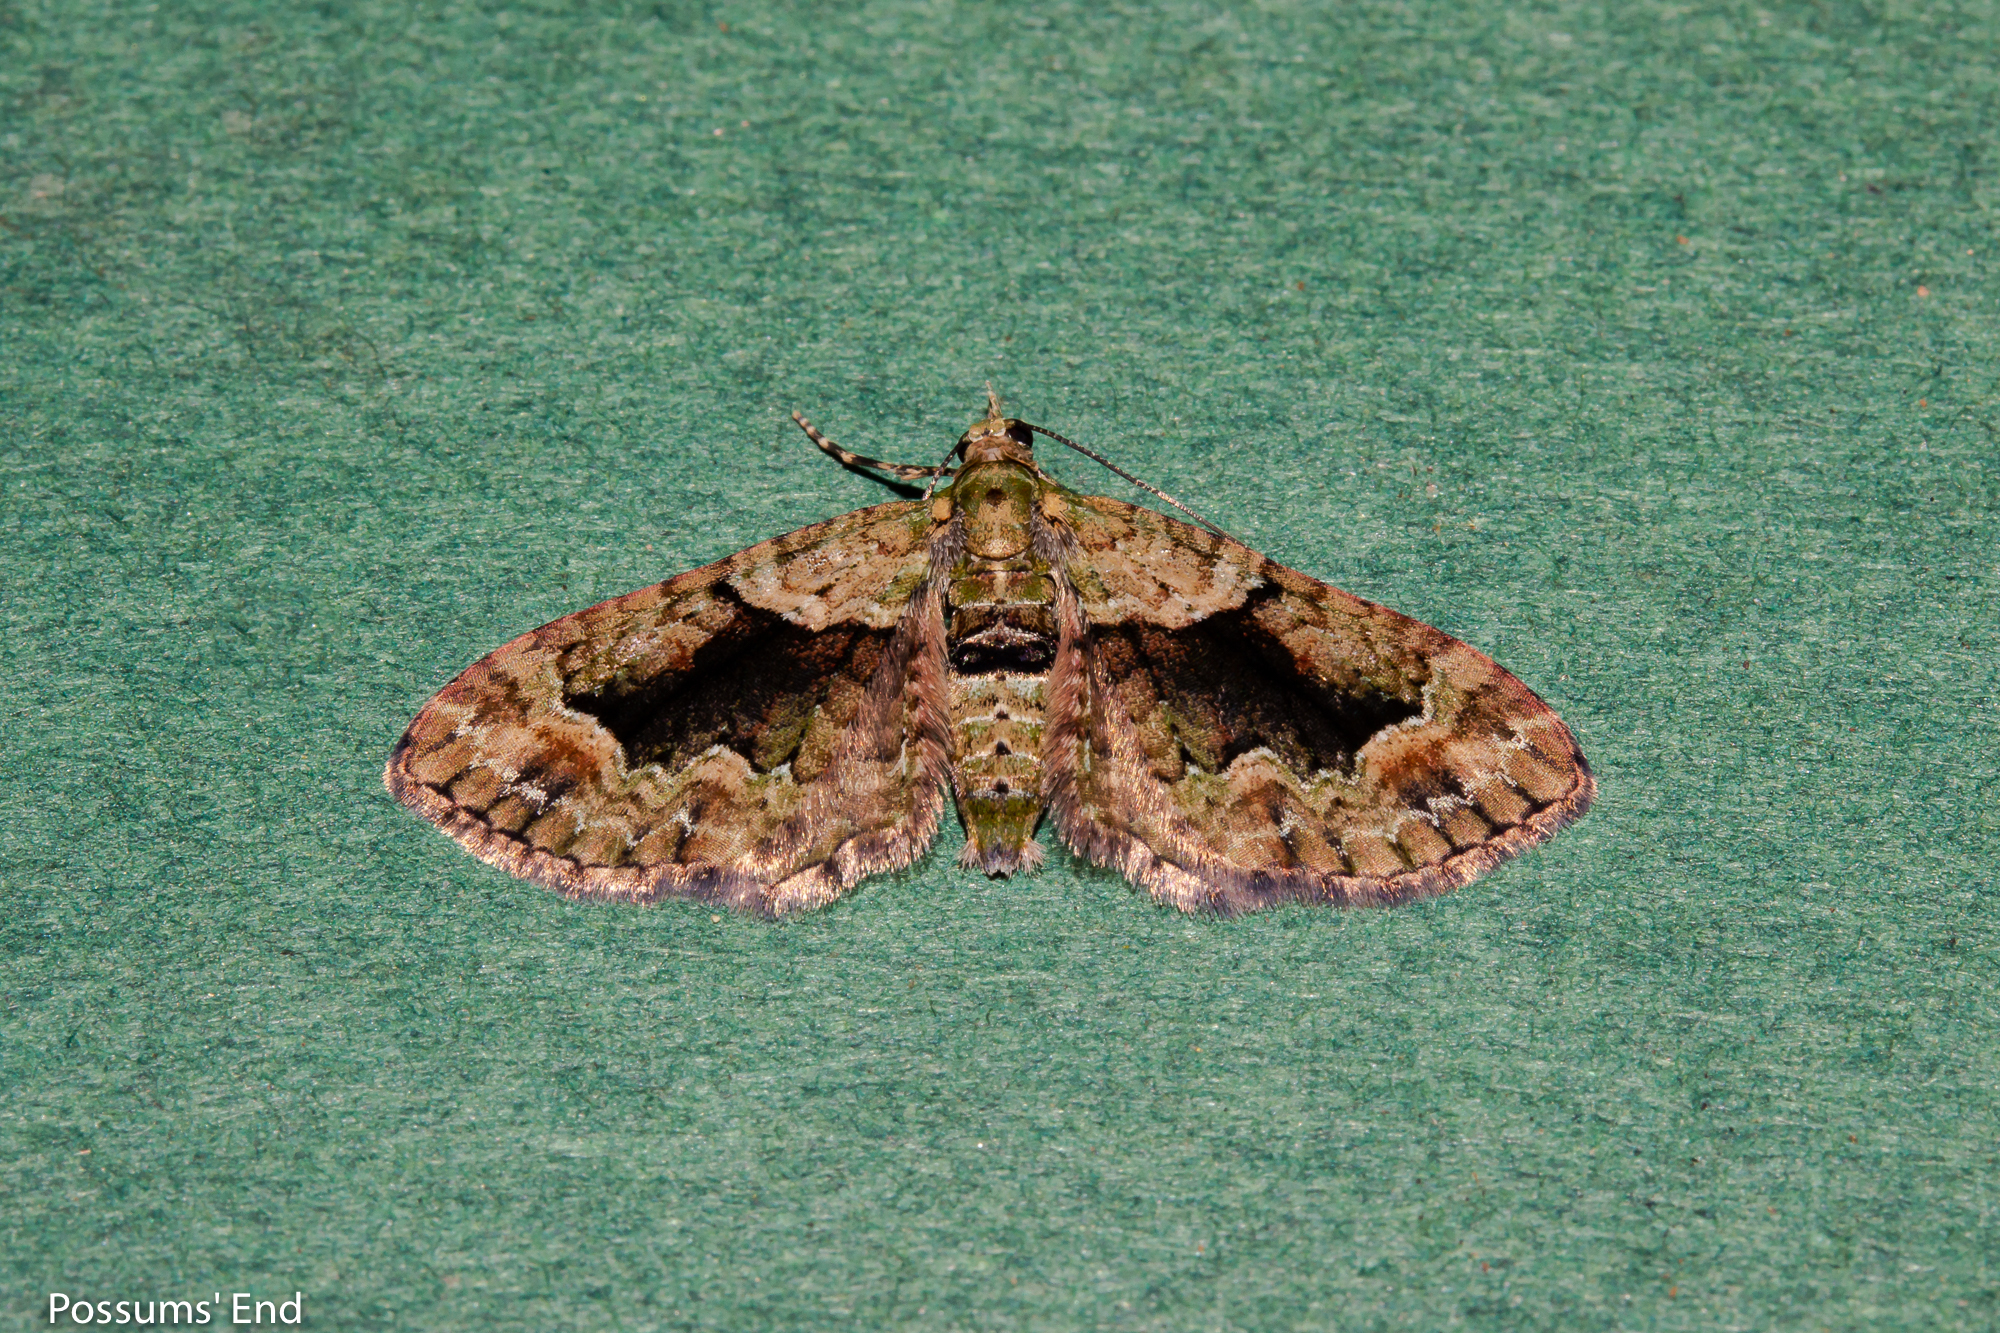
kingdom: Animalia
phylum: Arthropoda
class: Insecta
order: Lepidoptera
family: Geometridae
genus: Pasiphila
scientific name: Pasiphila suffusa
